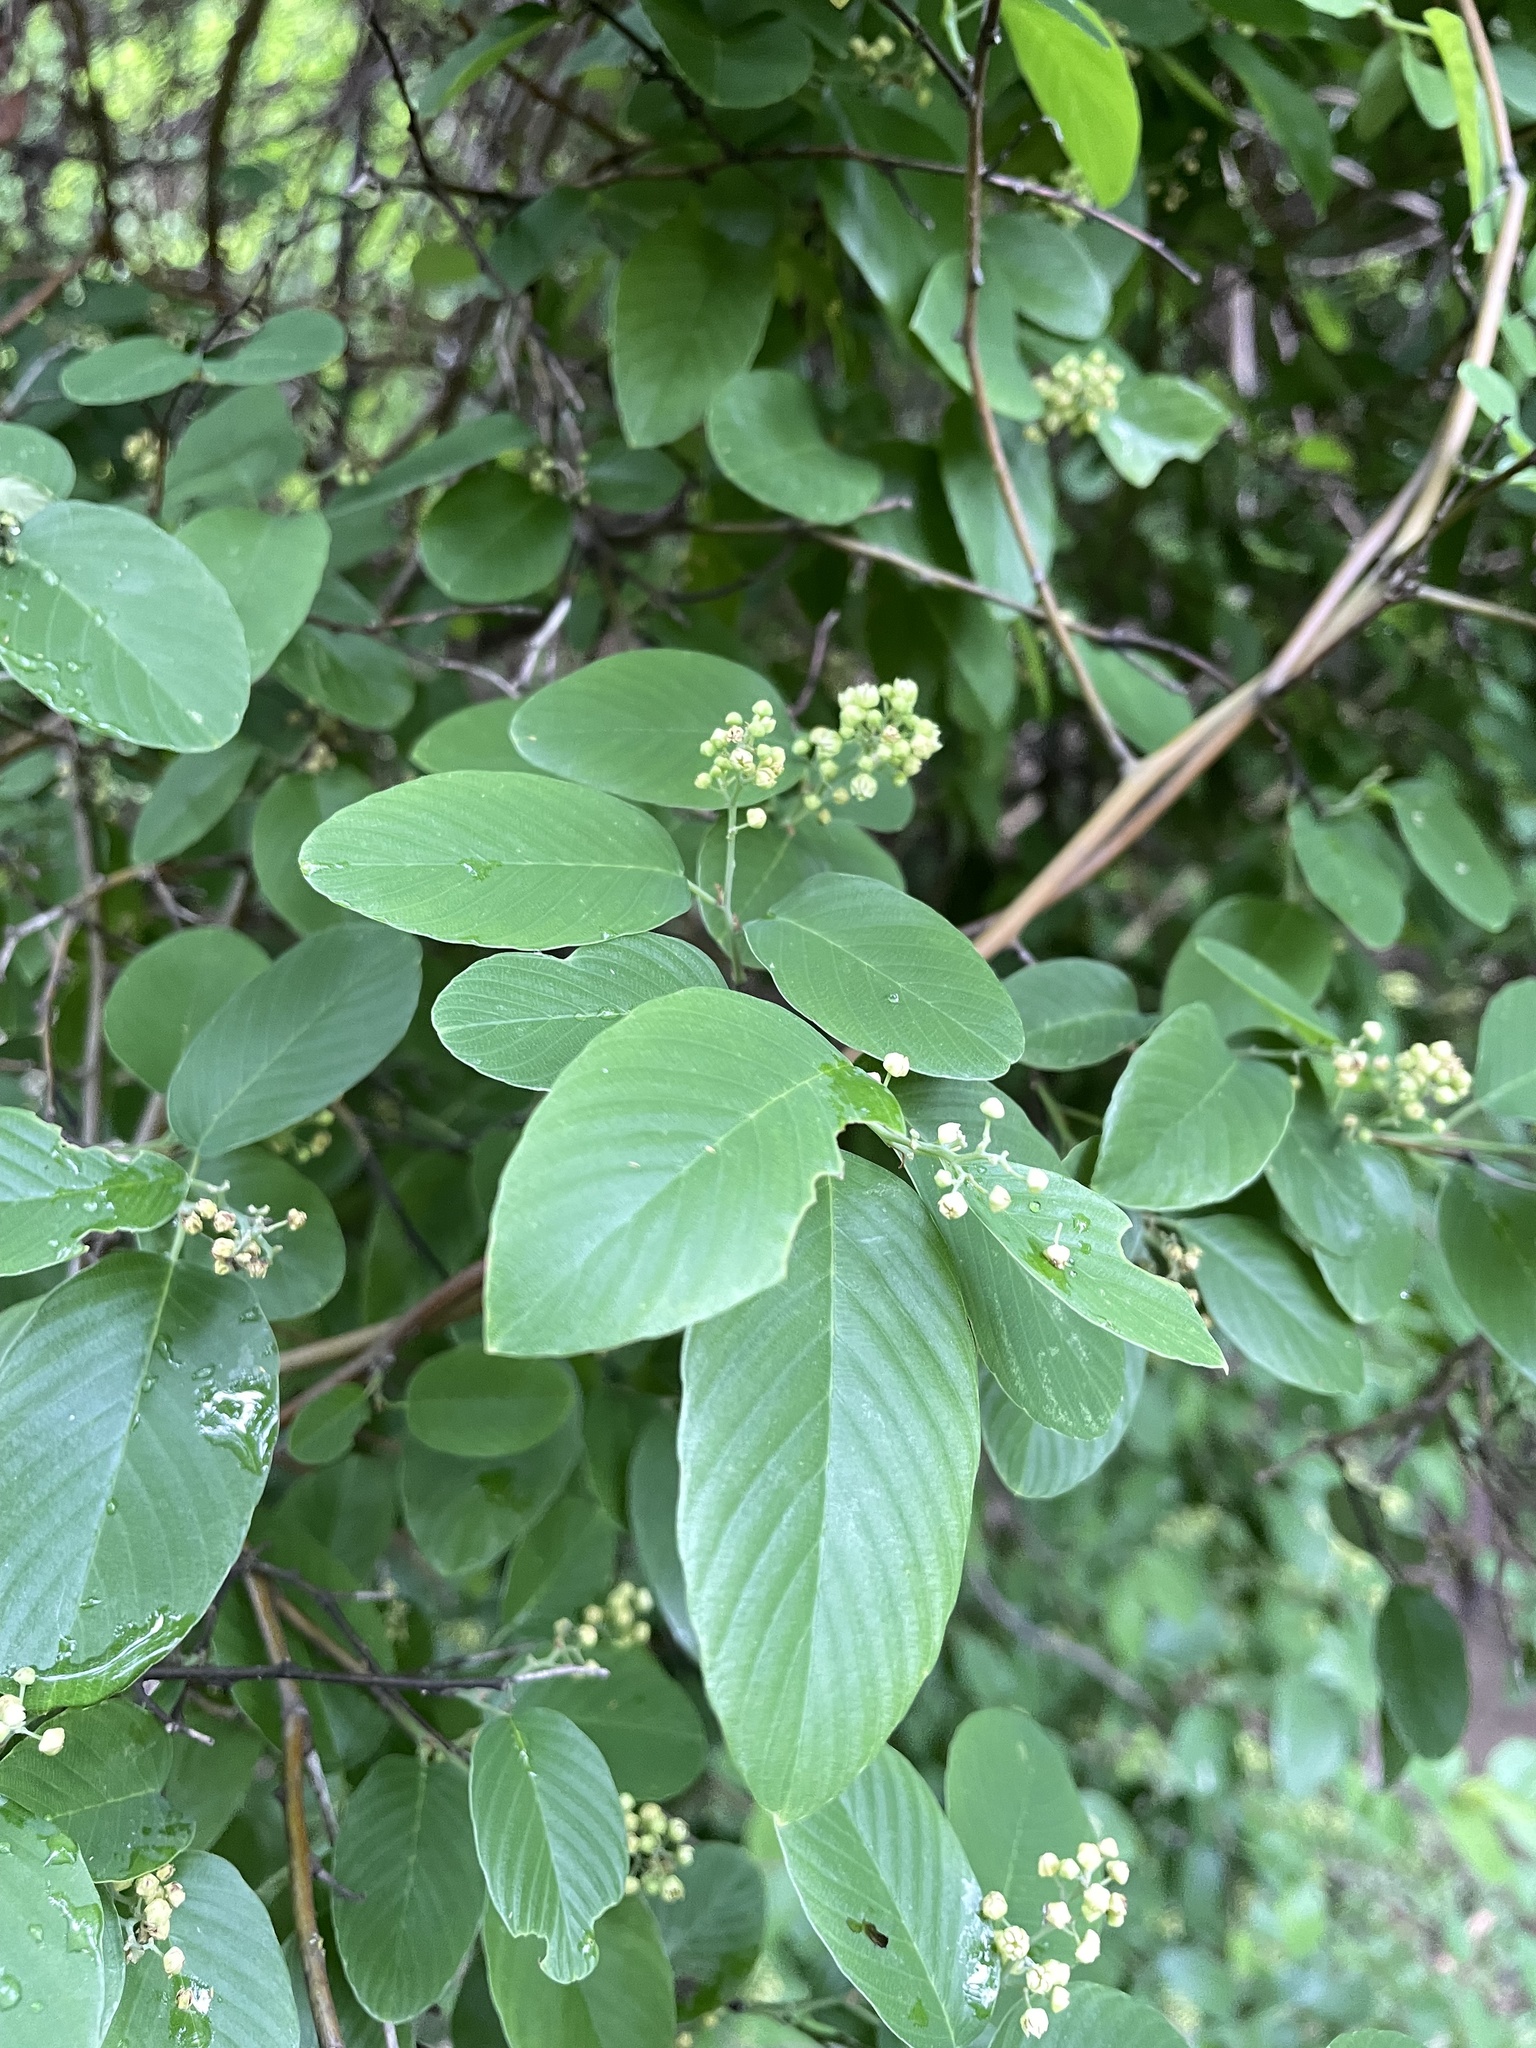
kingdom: Plantae
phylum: Tracheophyta
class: Magnoliopsida
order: Rosales
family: Rhamnaceae
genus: Berchemia
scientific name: Berchemia scandens
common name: Supplejack
